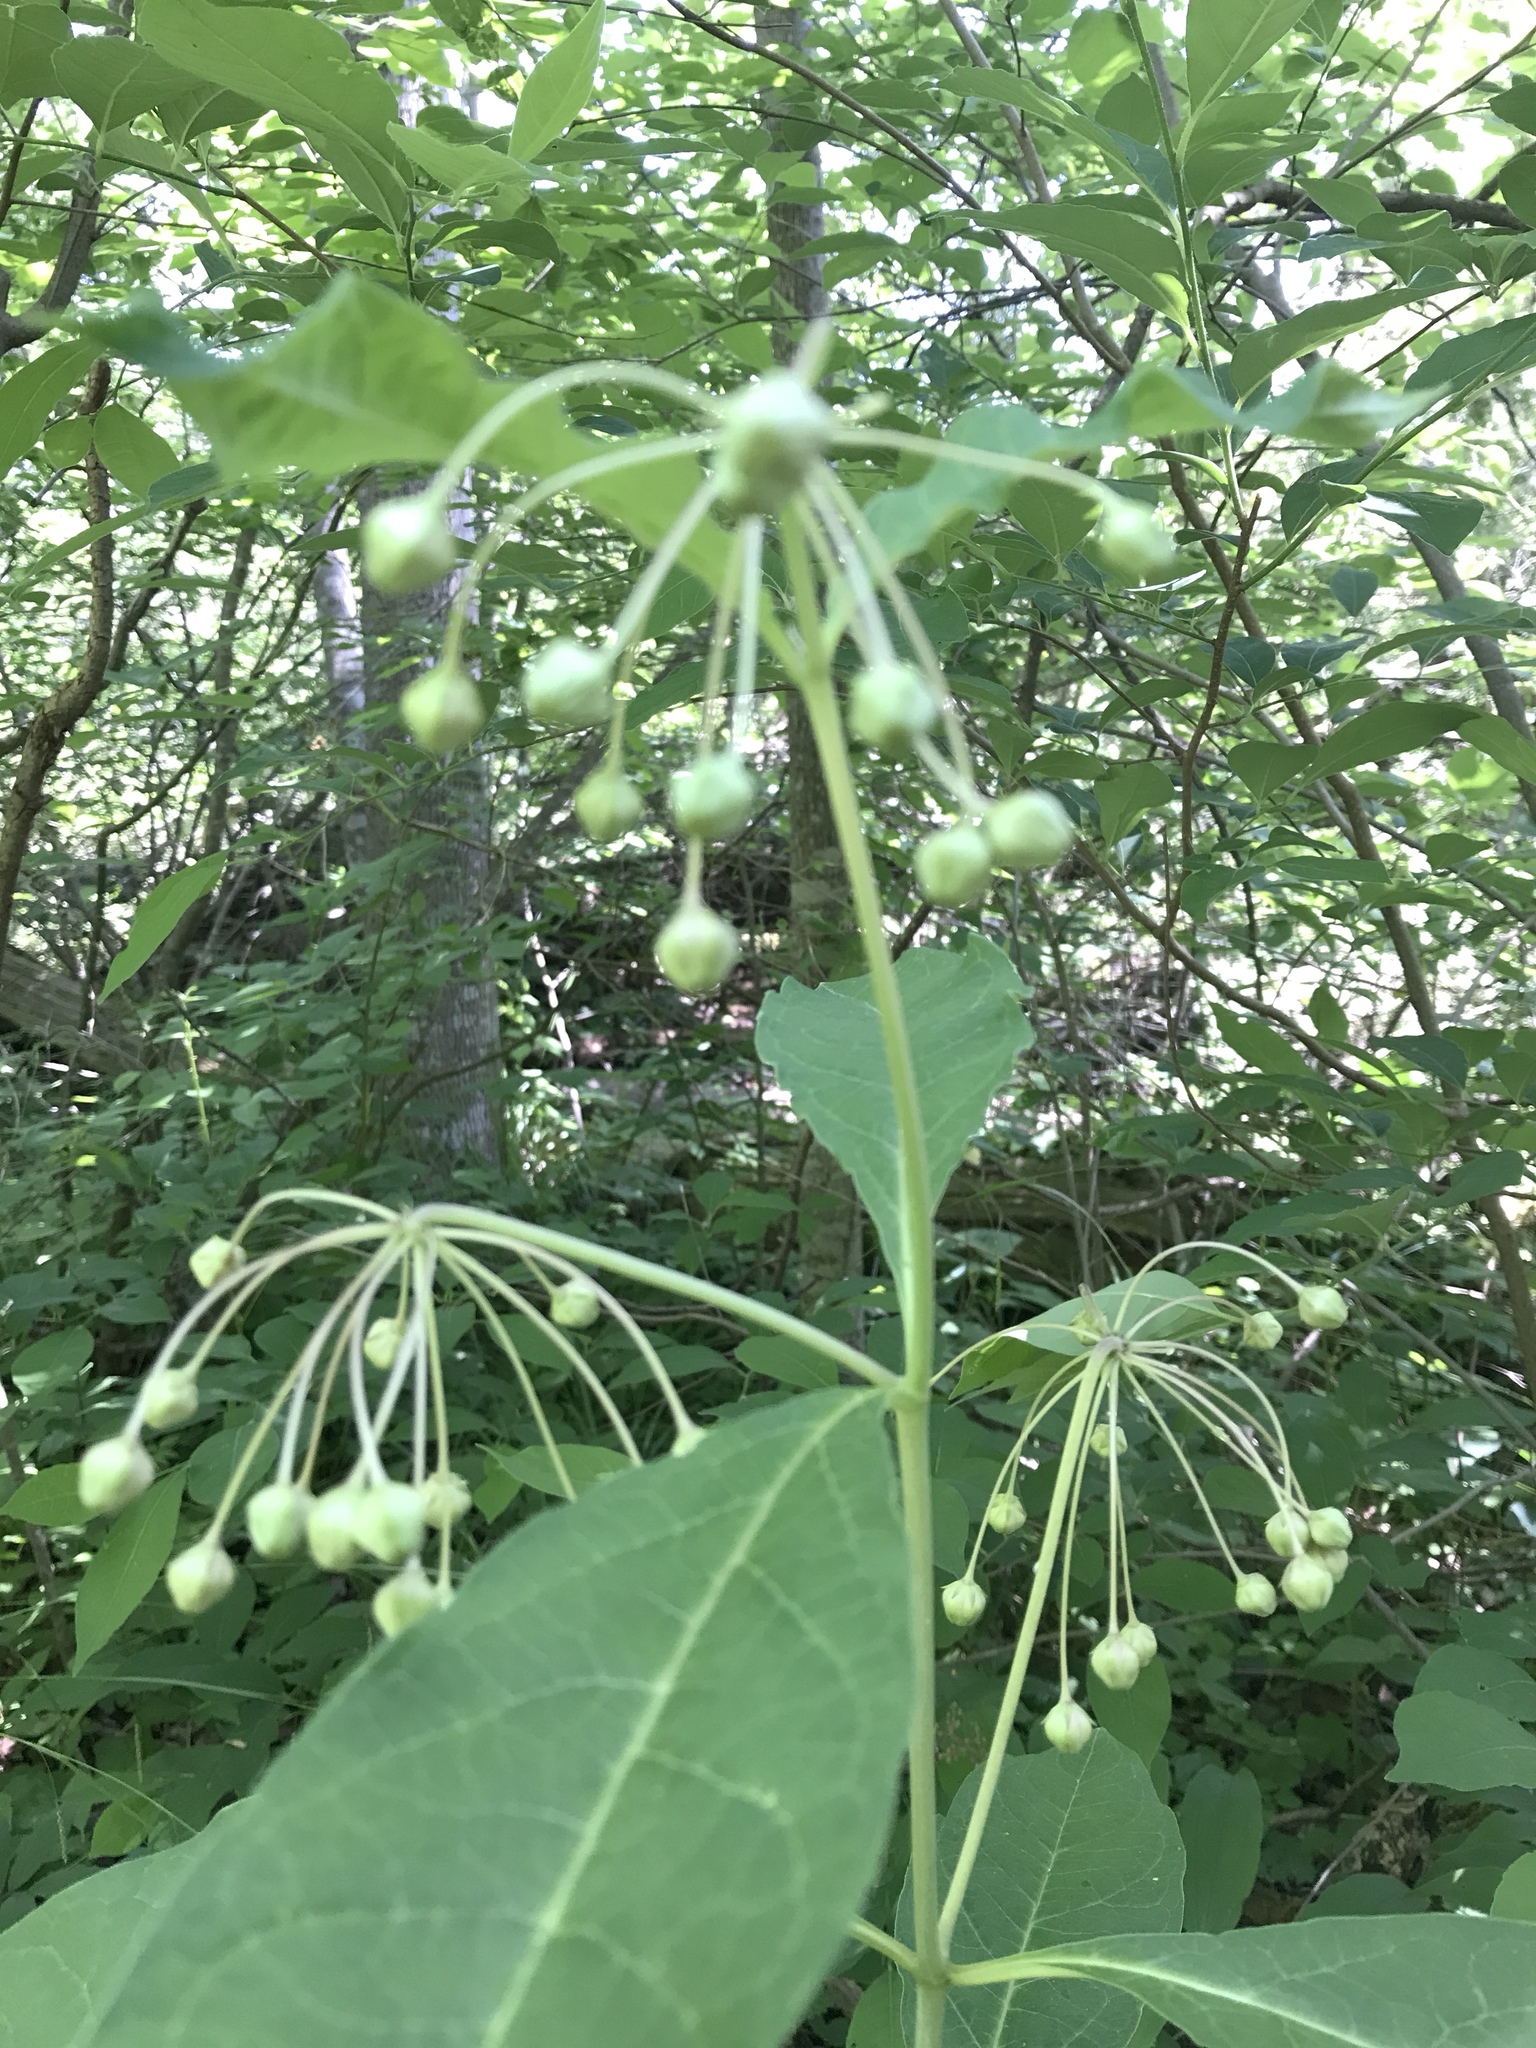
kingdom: Plantae
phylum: Tracheophyta
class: Magnoliopsida
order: Gentianales
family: Apocynaceae
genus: Asclepias
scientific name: Asclepias exaltata
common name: Poke milkweed
